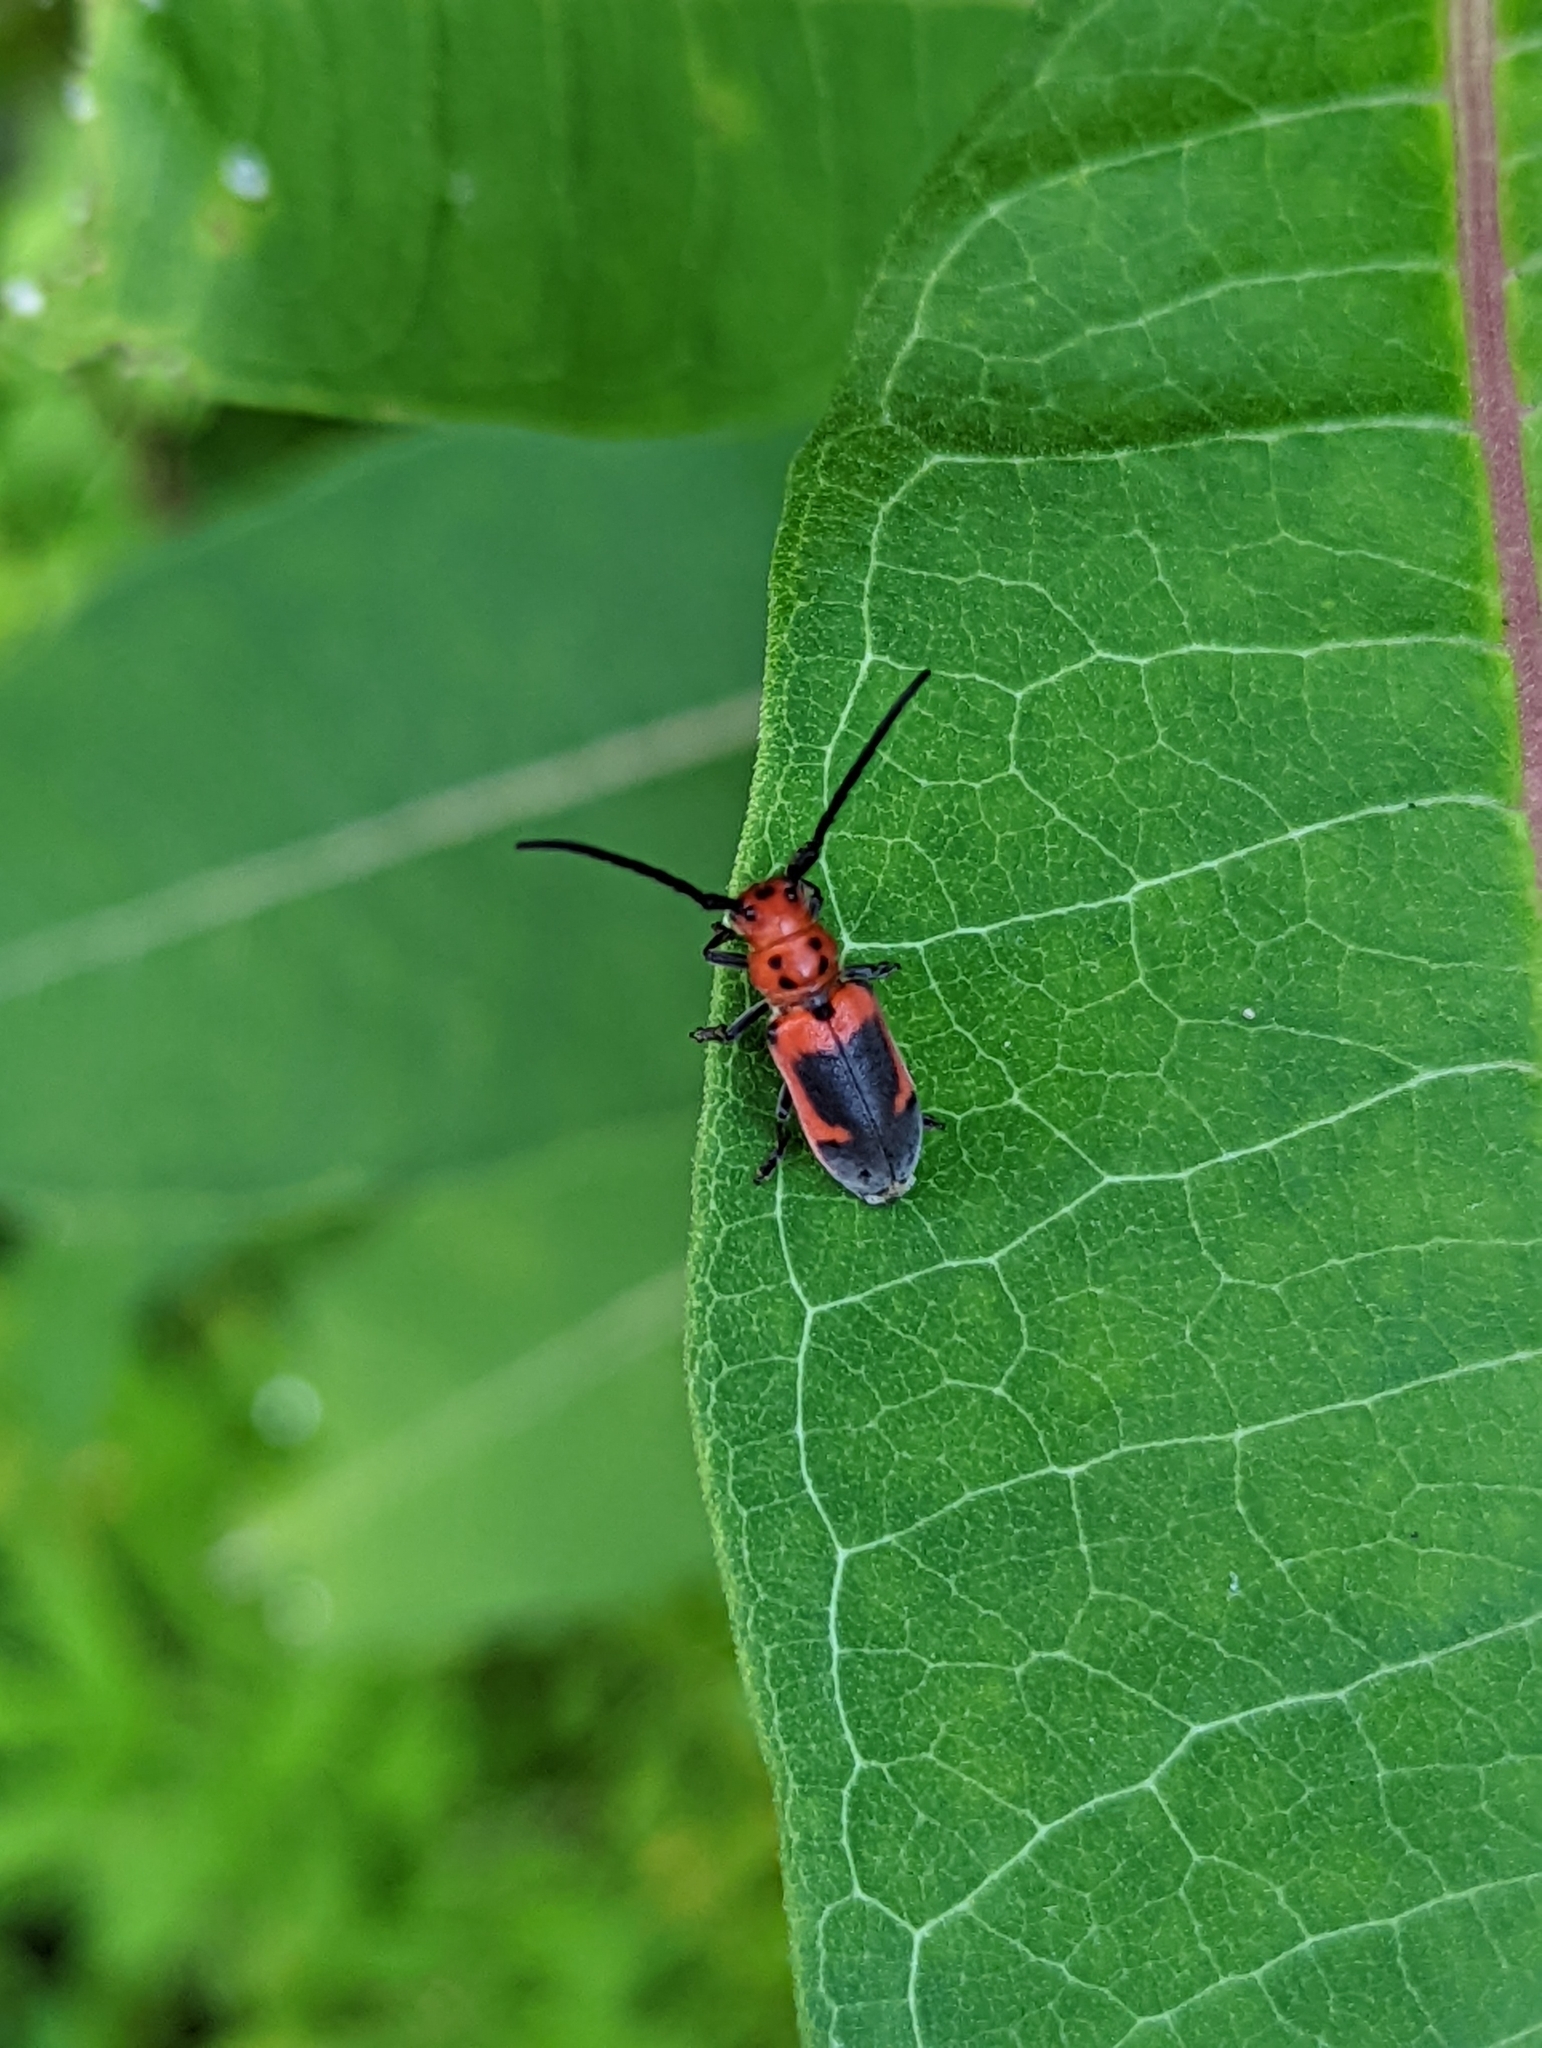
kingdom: Animalia
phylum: Arthropoda
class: Insecta
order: Coleoptera
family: Cerambycidae
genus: Tetraopes
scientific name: Tetraopes melanurus
